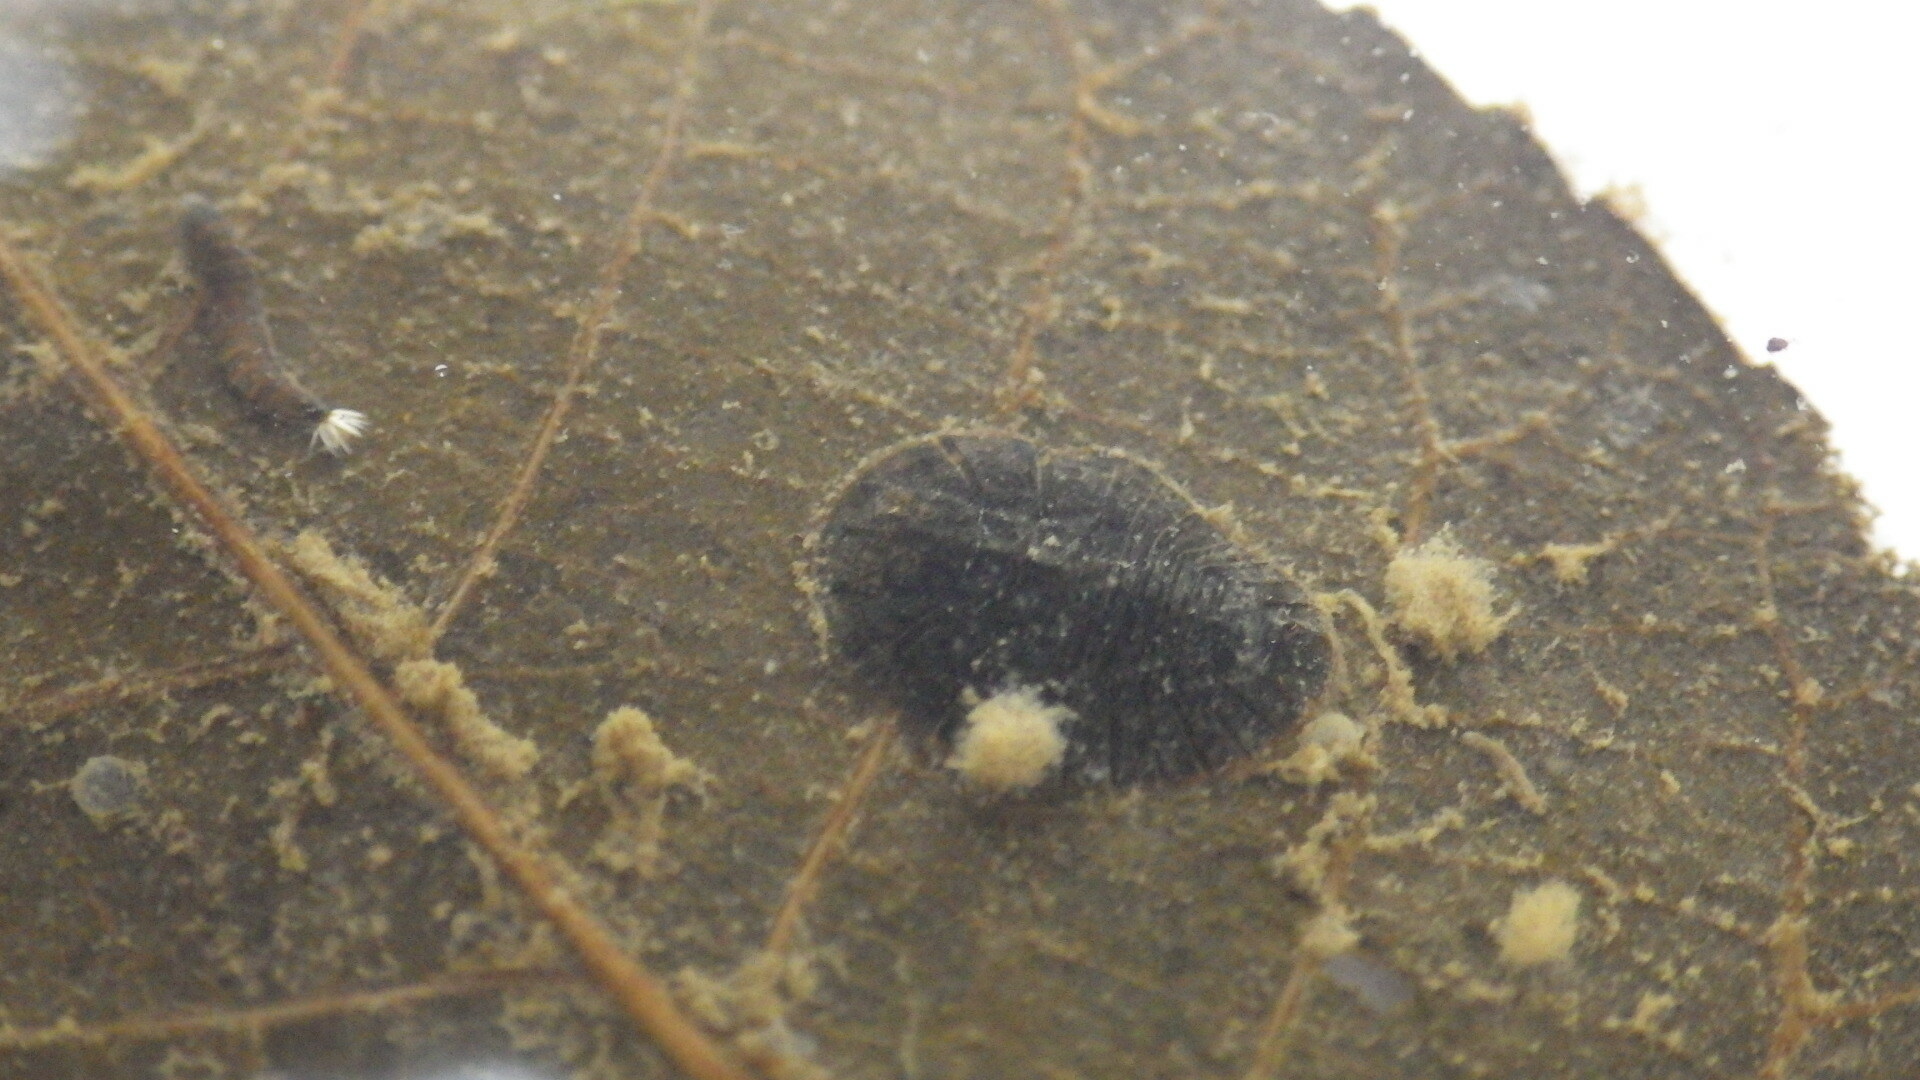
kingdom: Animalia
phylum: Arthropoda
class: Insecta
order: Coleoptera
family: Psephenidae
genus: Psephenus
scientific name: Psephenus herricki
